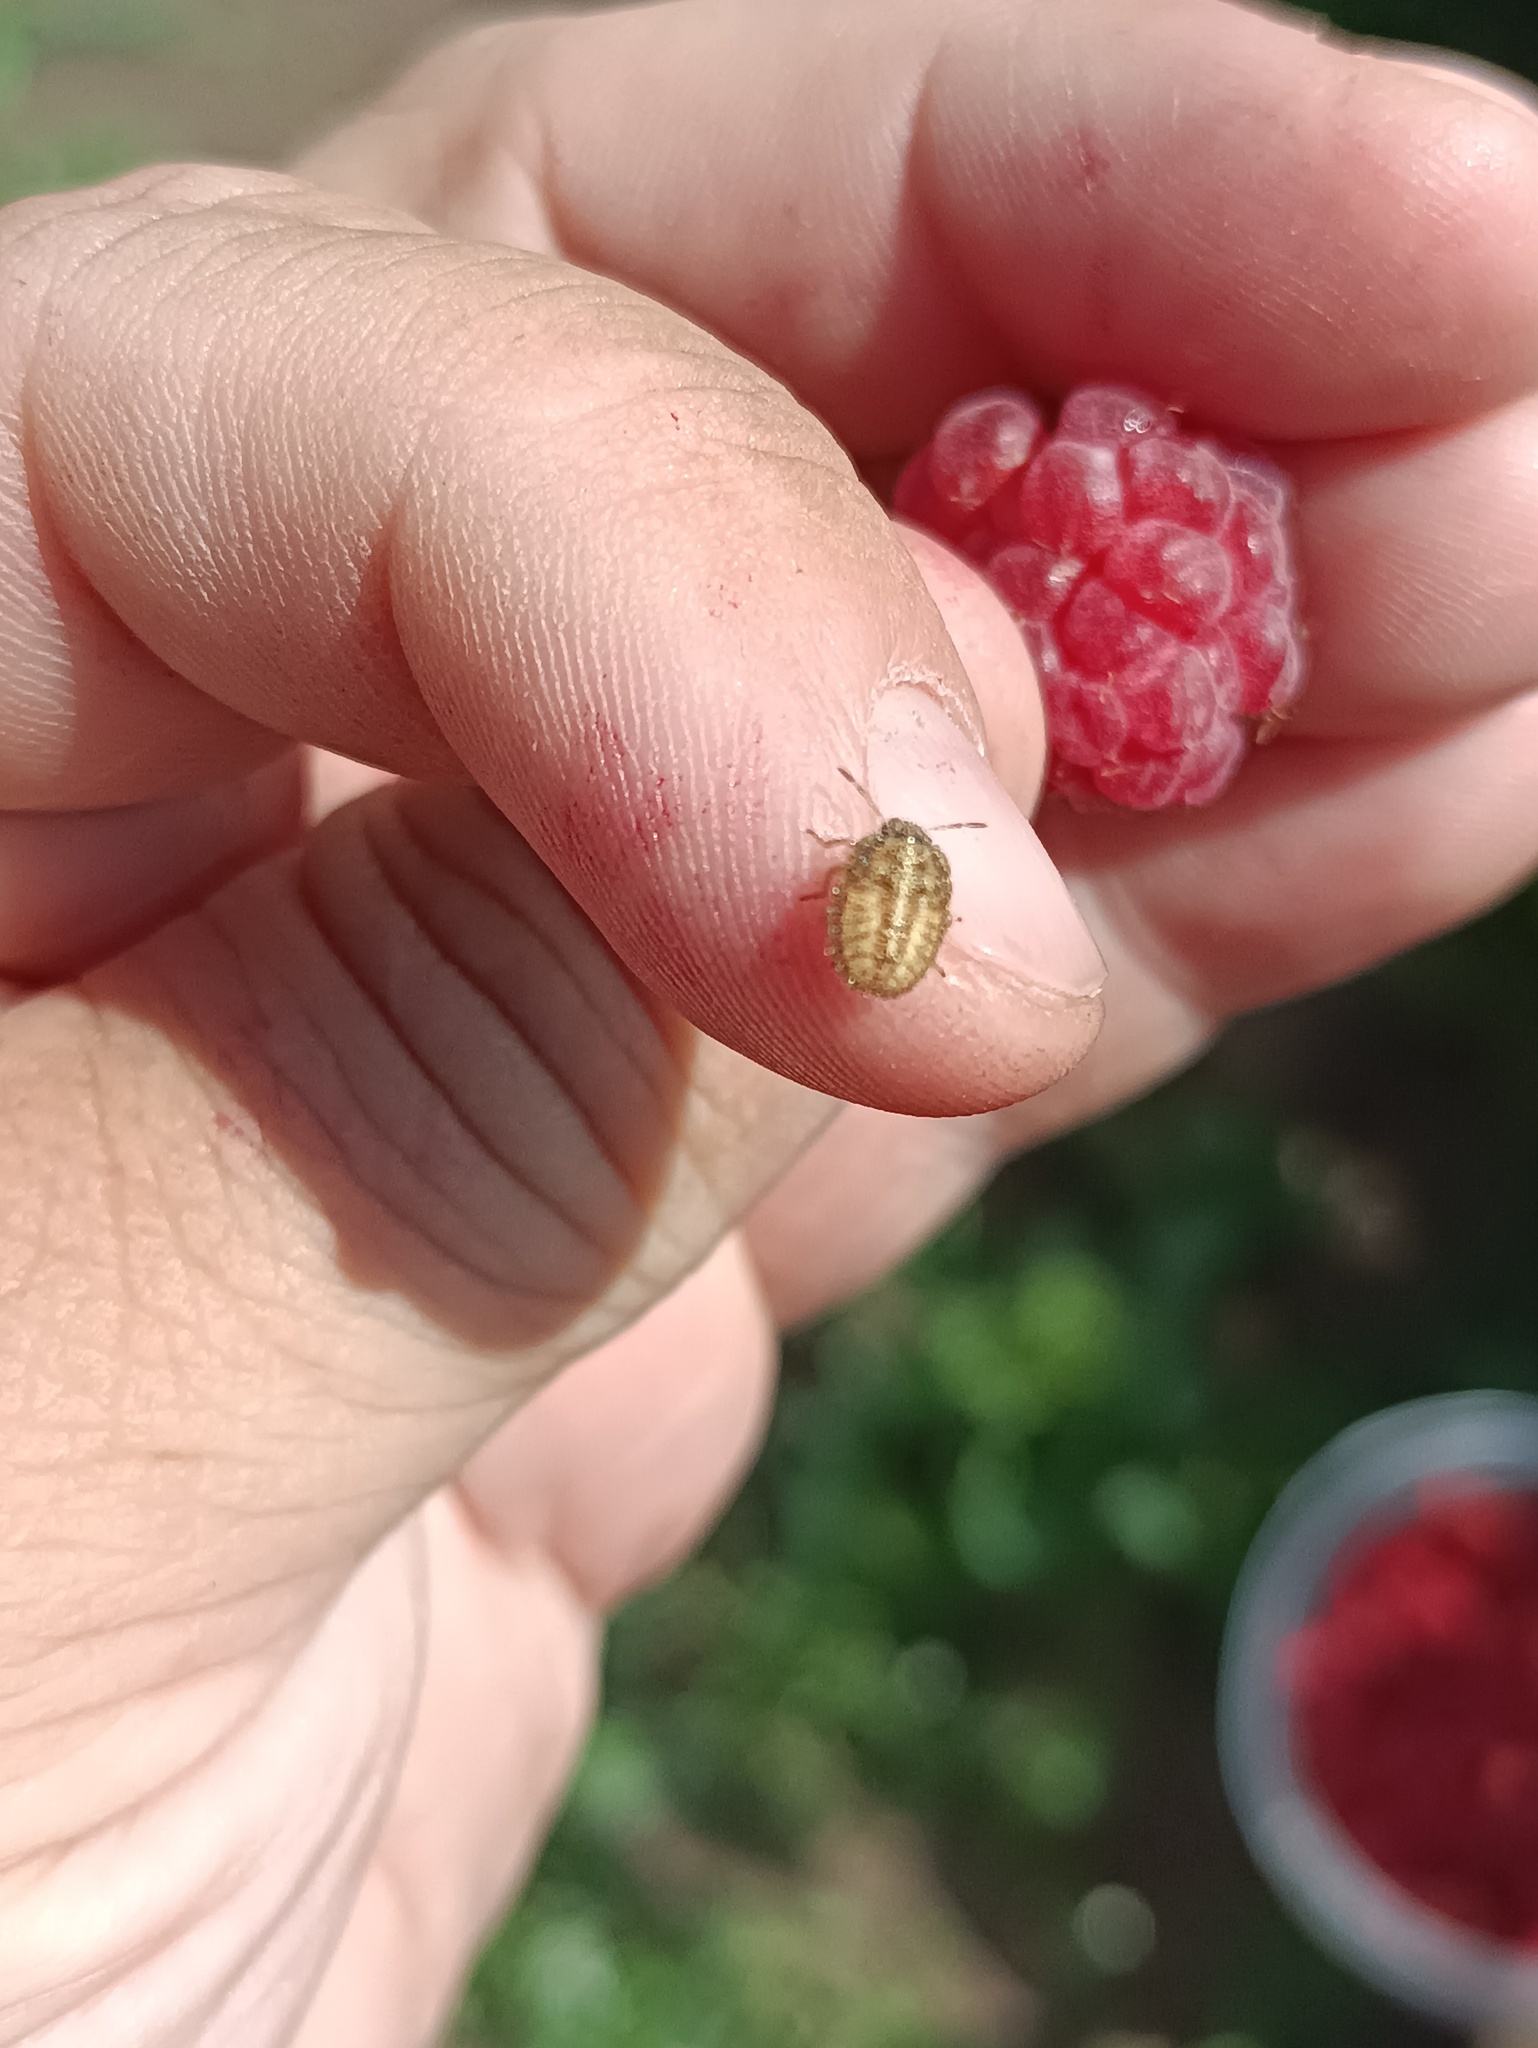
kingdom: Animalia
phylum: Arthropoda
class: Insecta
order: Hemiptera
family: Pentatomidae
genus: Dolycoris
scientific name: Dolycoris baccarum
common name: Sloe bug
